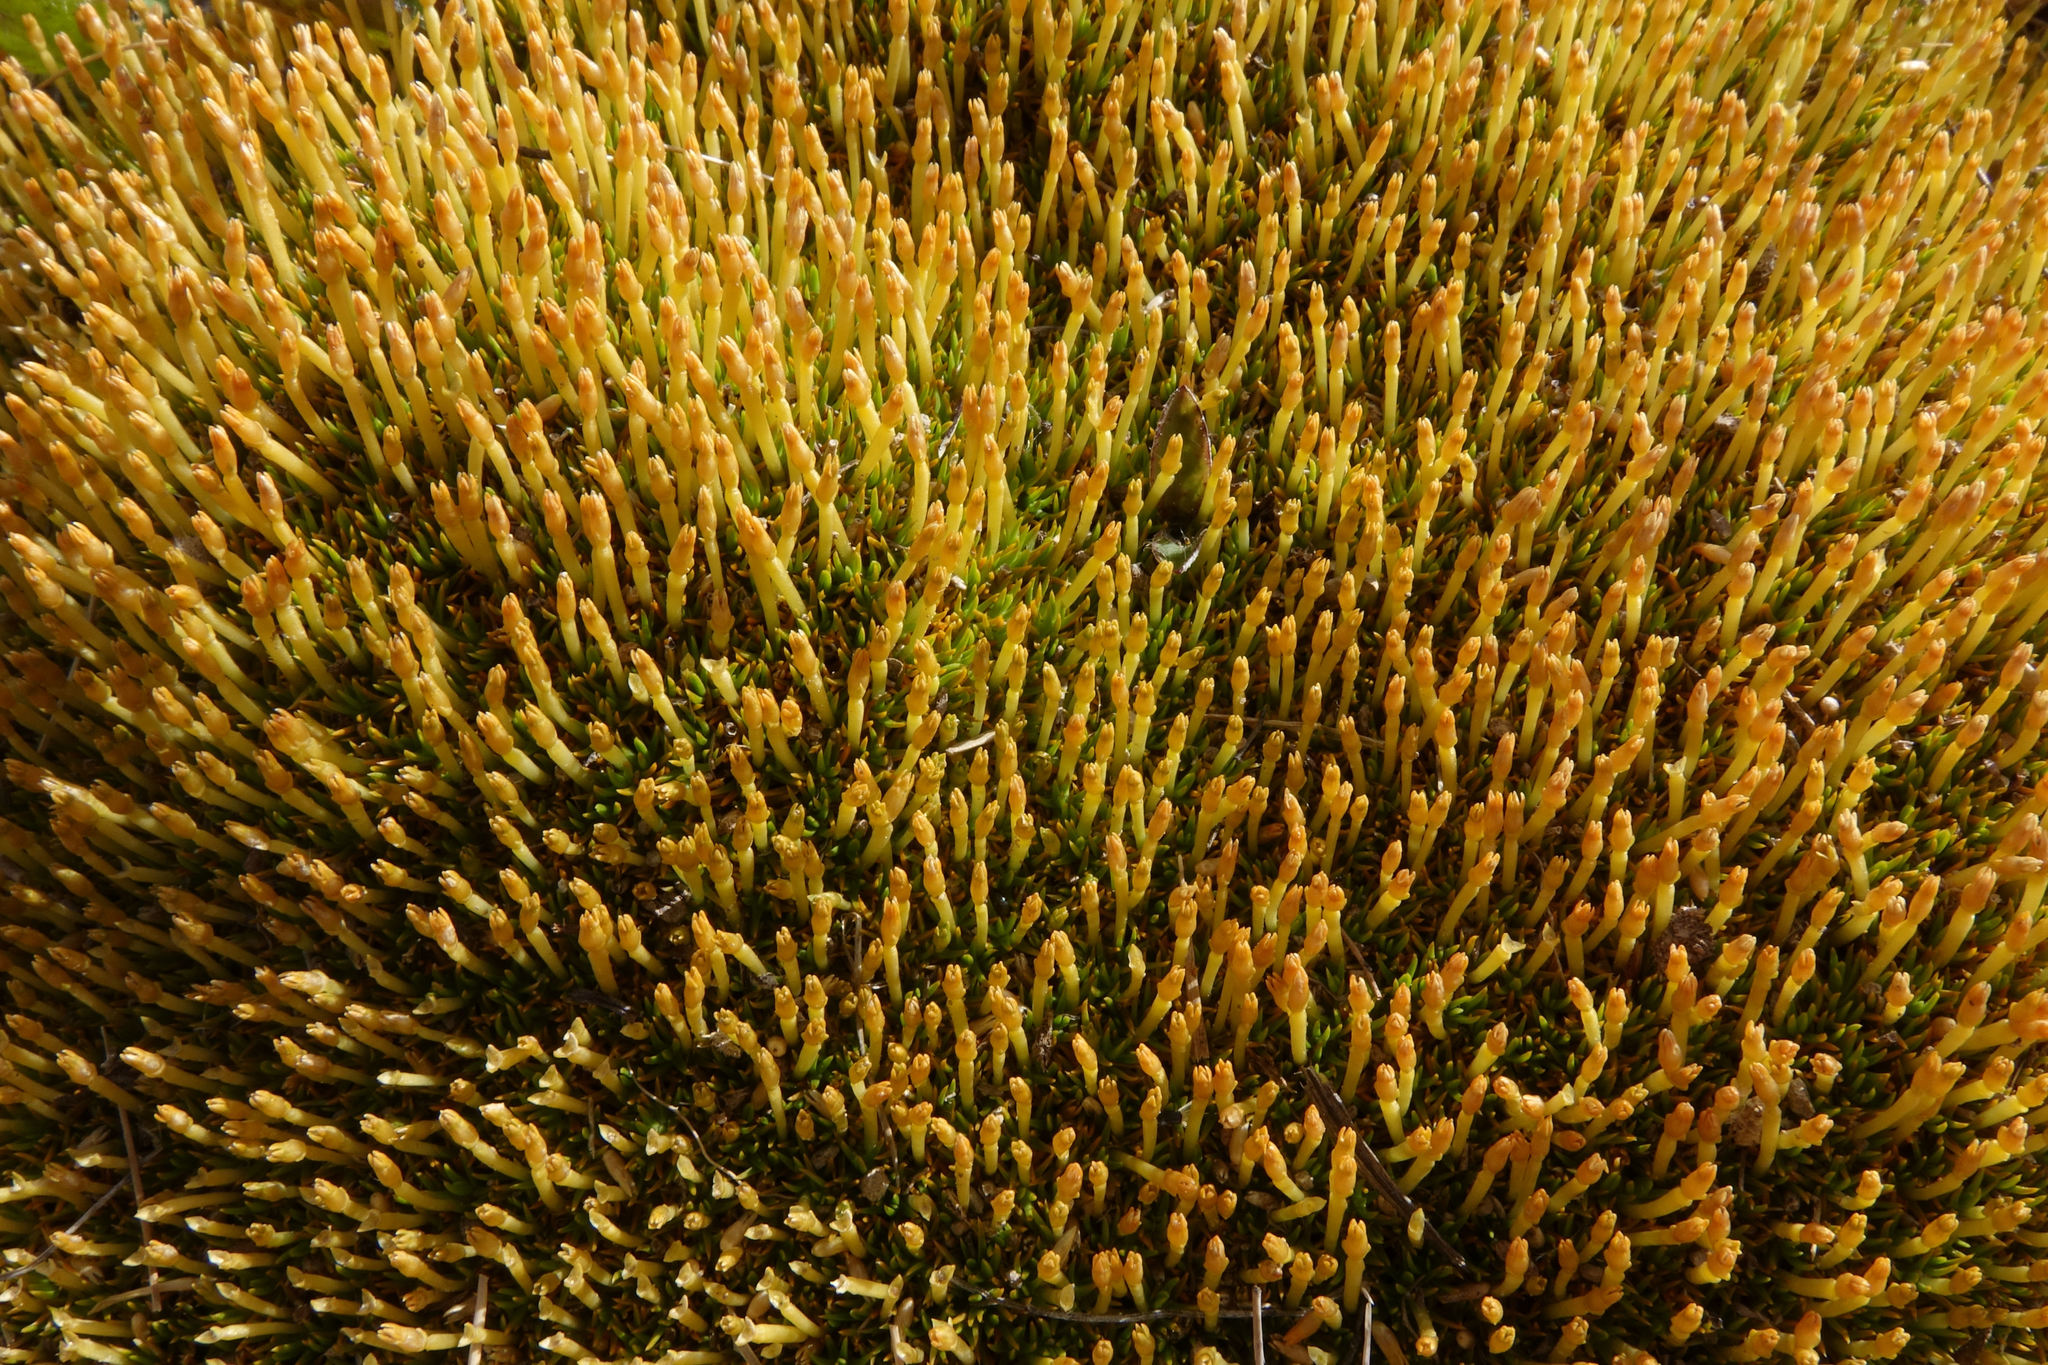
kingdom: Plantae
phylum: Tracheophyta
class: Magnoliopsida
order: Caryophyllales
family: Caryophyllaceae
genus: Scleranthus
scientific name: Scleranthus uniflorus
